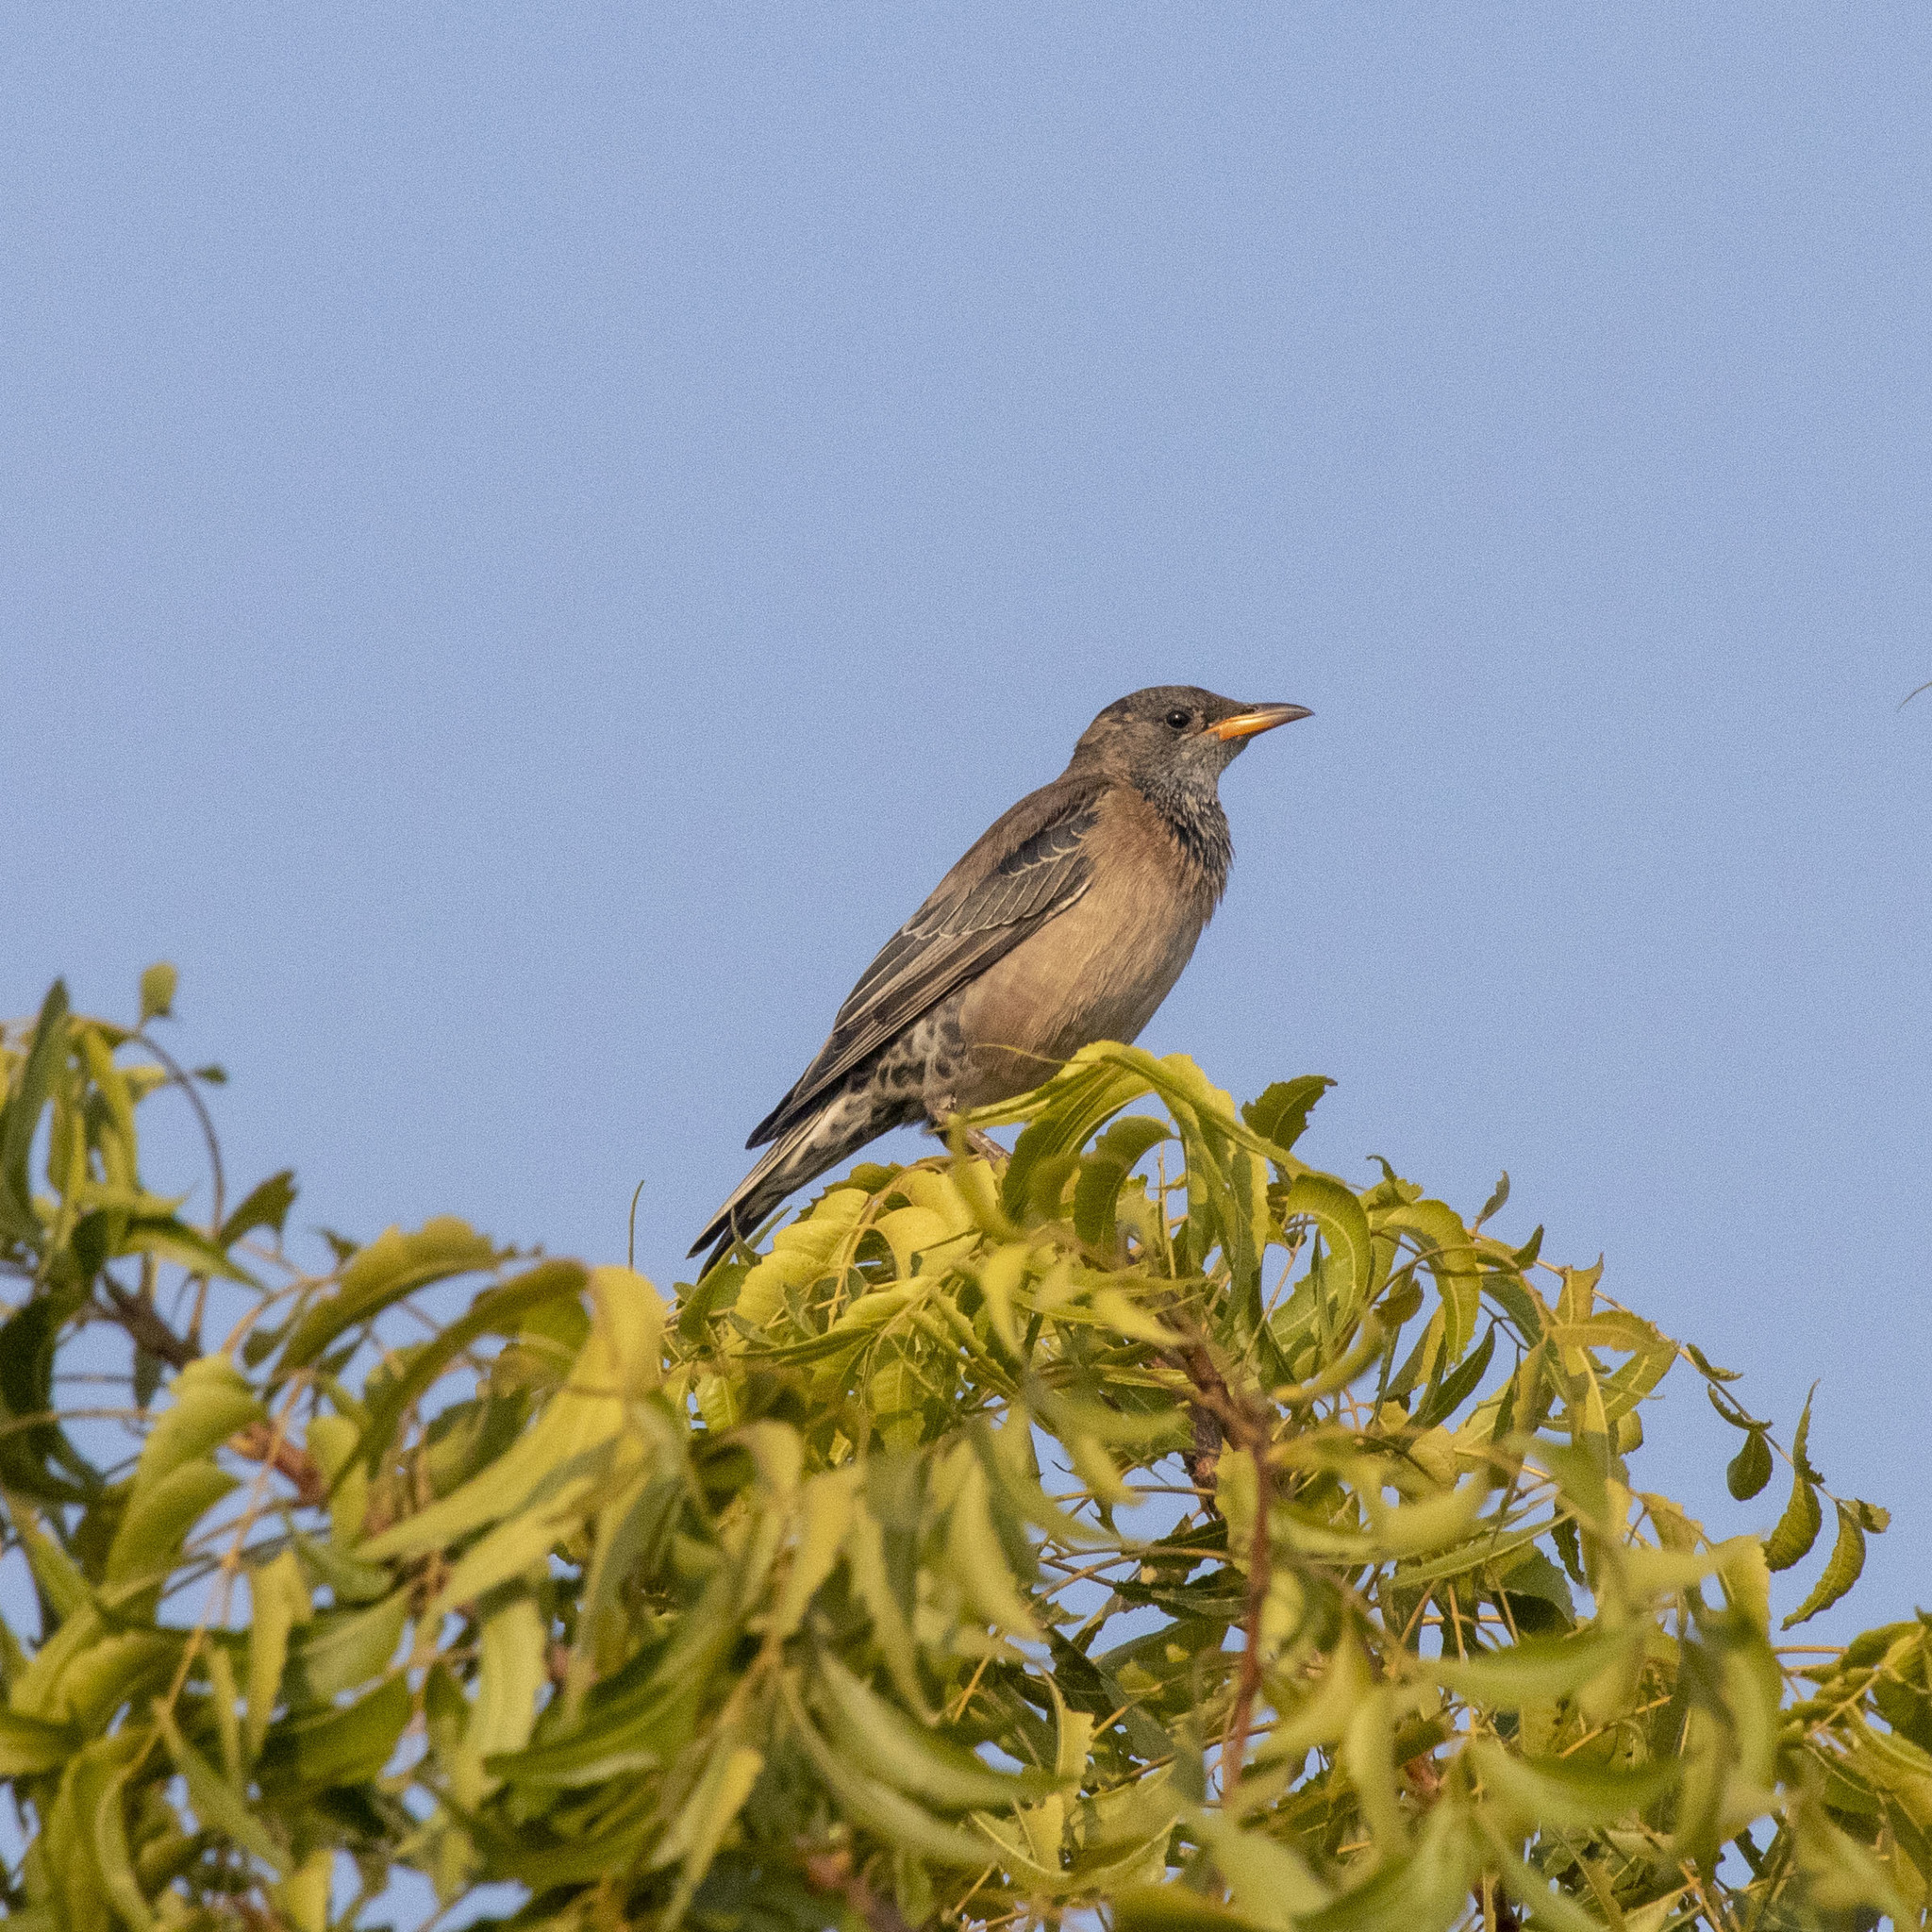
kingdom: Animalia
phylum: Chordata
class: Aves
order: Passeriformes
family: Sturnidae
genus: Pastor
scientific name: Pastor roseus
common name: Rosy starling
